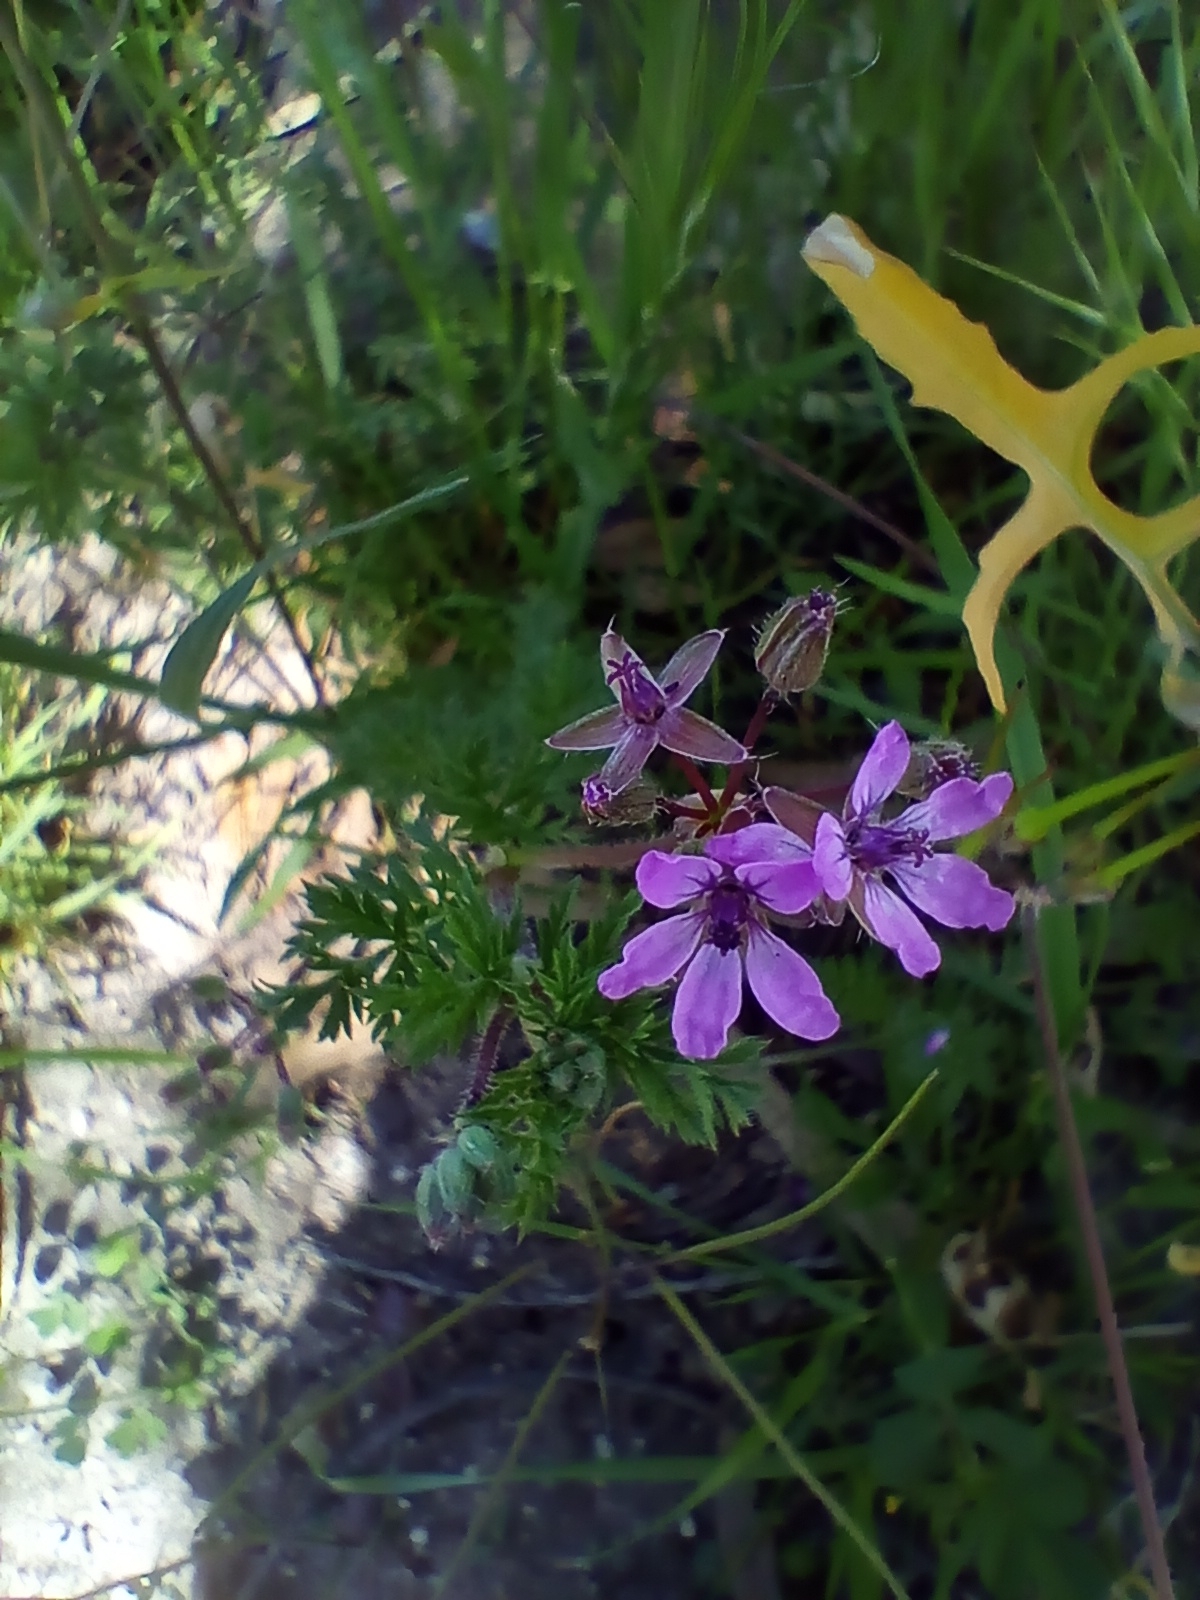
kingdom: Plantae
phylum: Tracheophyta
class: Magnoliopsida
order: Geraniales
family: Geraniaceae
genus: Erodium
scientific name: Erodium cicutarium
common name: Common stork's-bill
